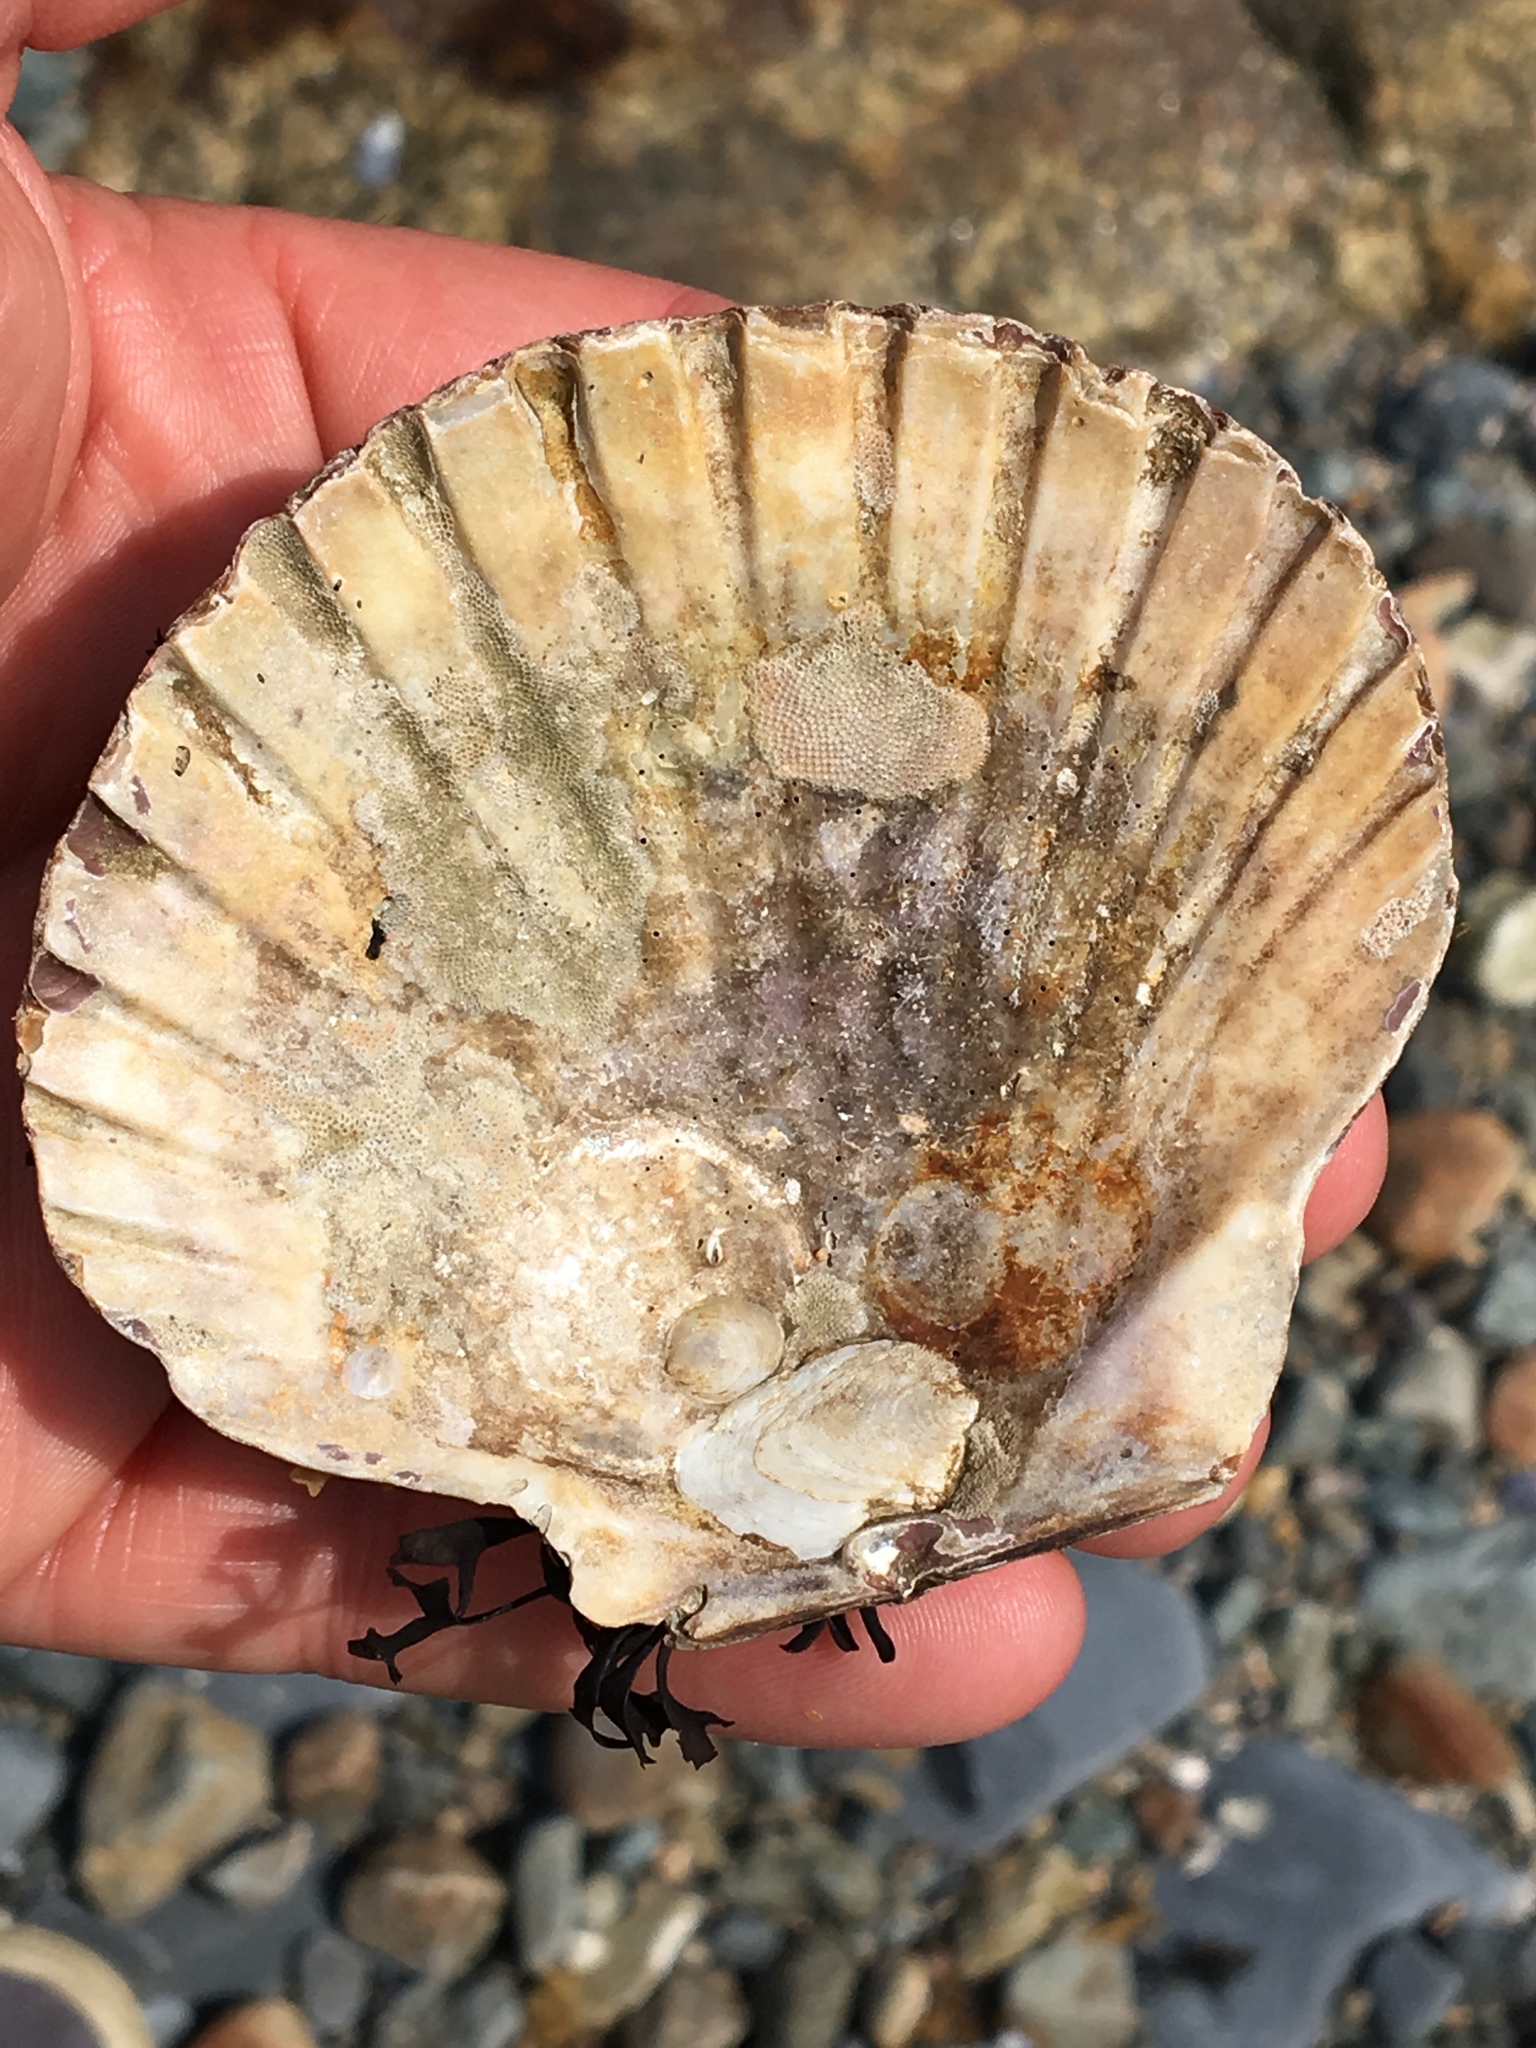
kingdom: Animalia
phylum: Mollusca
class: Bivalvia
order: Pectinida
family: Pectinidae
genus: Argopecten
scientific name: Argopecten irradians
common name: Atlantic bay scallop
